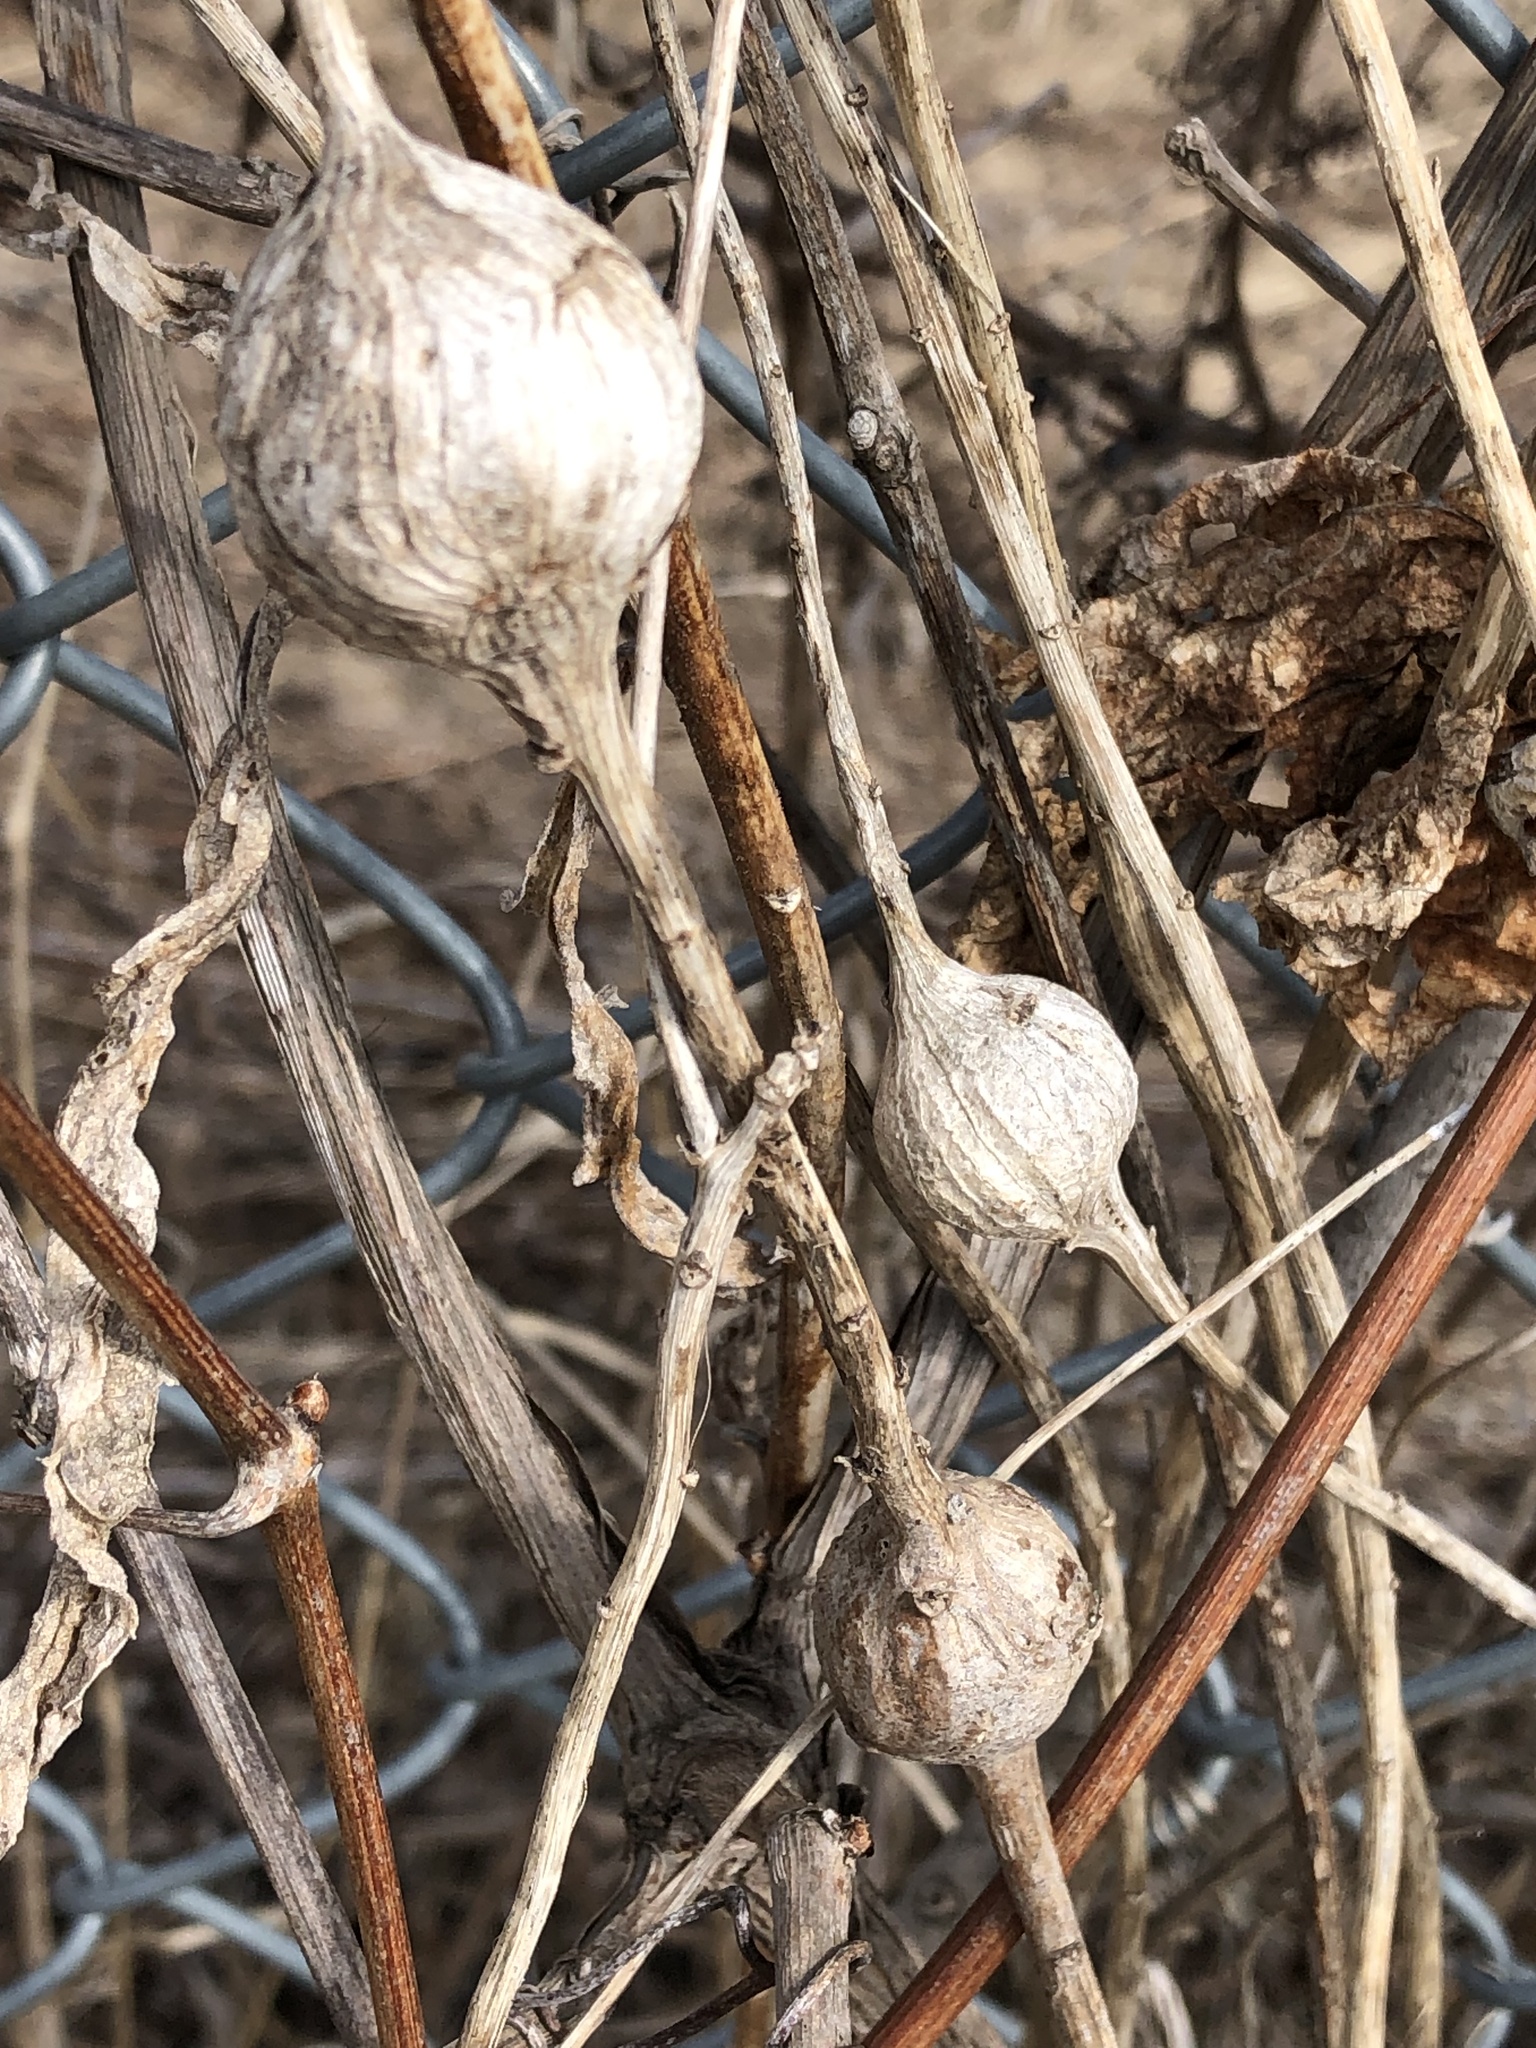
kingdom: Animalia
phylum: Arthropoda
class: Insecta
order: Diptera
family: Tephritidae
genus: Eurosta
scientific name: Eurosta solidaginis
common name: Goldenrod gall fly
